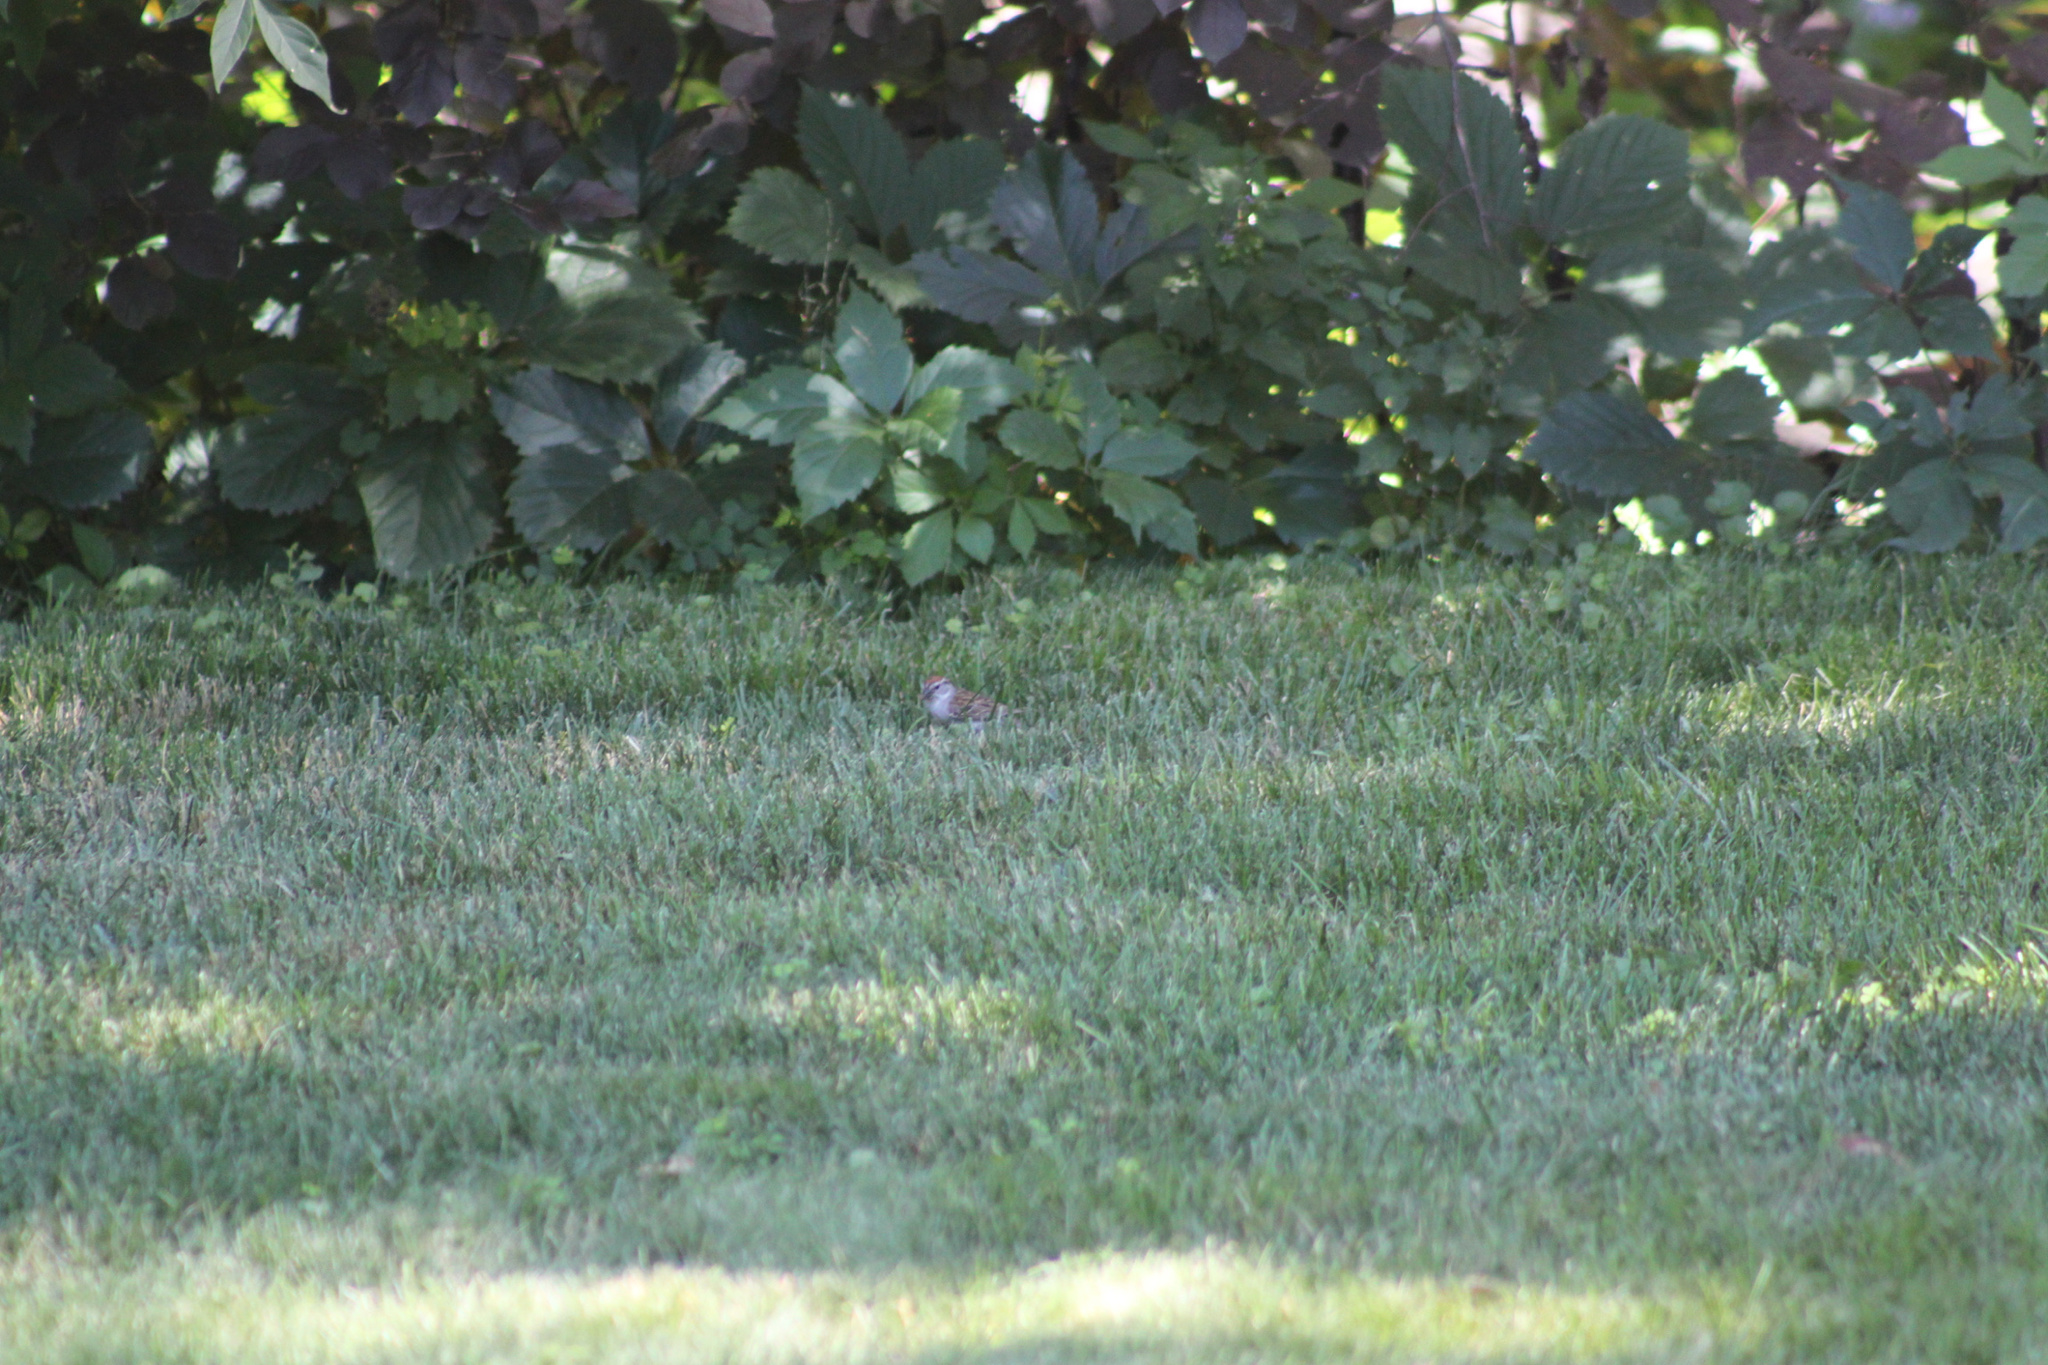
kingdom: Animalia
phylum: Chordata
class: Aves
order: Passeriformes
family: Passerellidae
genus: Spizella
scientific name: Spizella passerina
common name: Chipping sparrow
